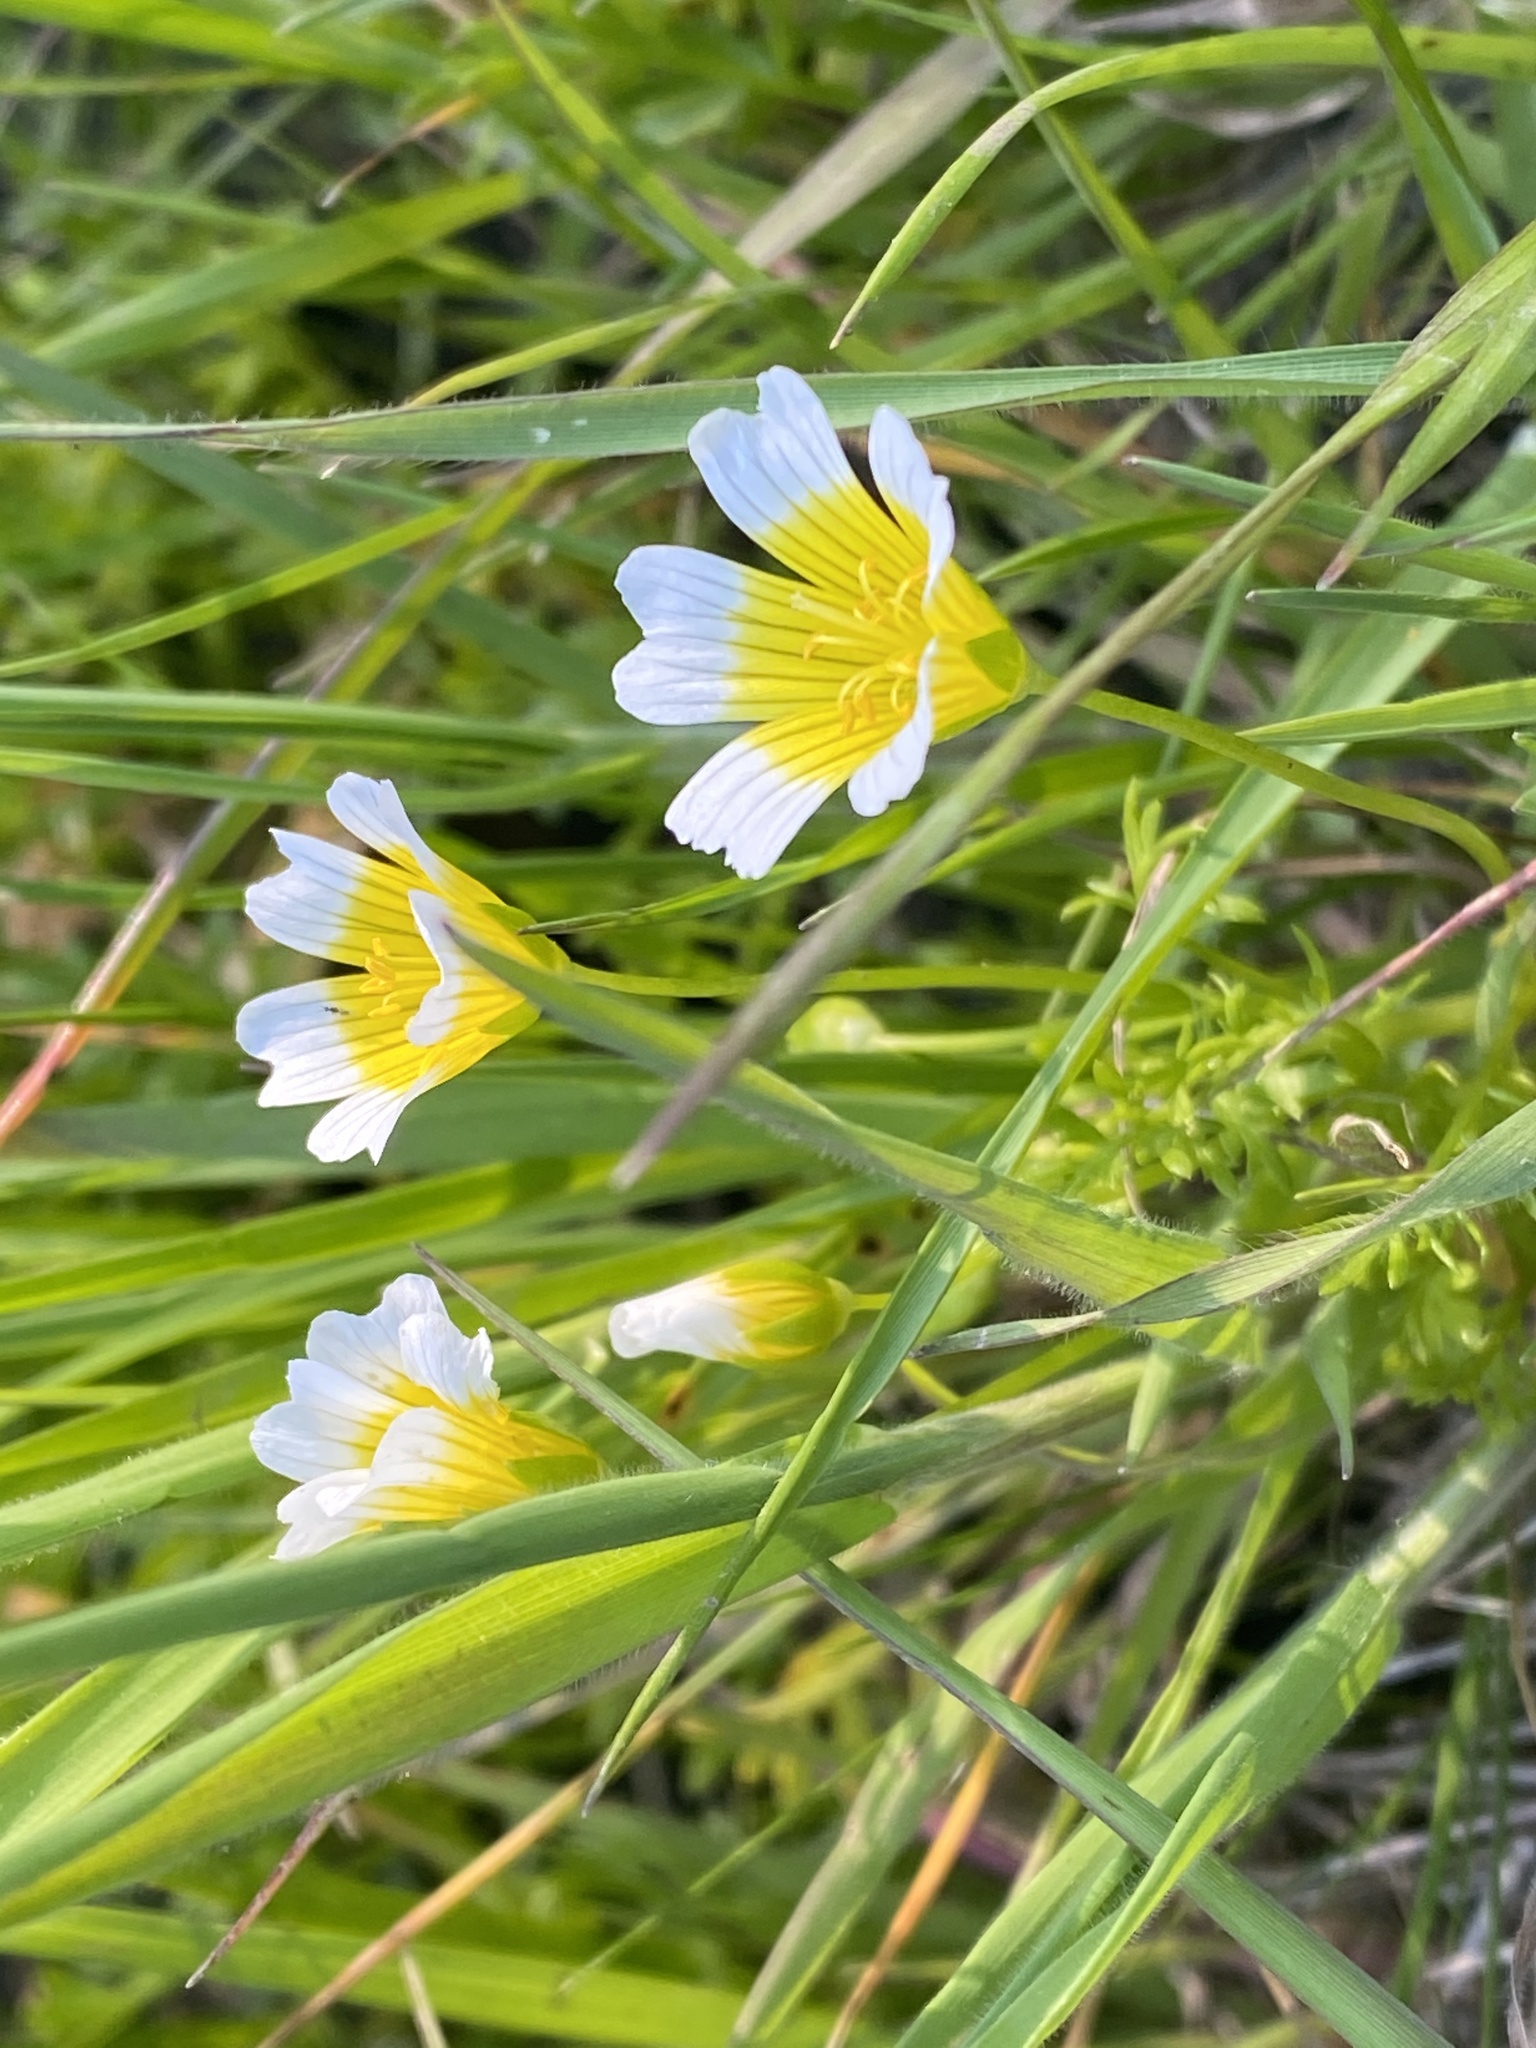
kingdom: Plantae
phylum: Tracheophyta
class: Magnoliopsida
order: Brassicales
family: Limnanthaceae
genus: Limnanthes
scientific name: Limnanthes douglasii
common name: Meadow-foam
